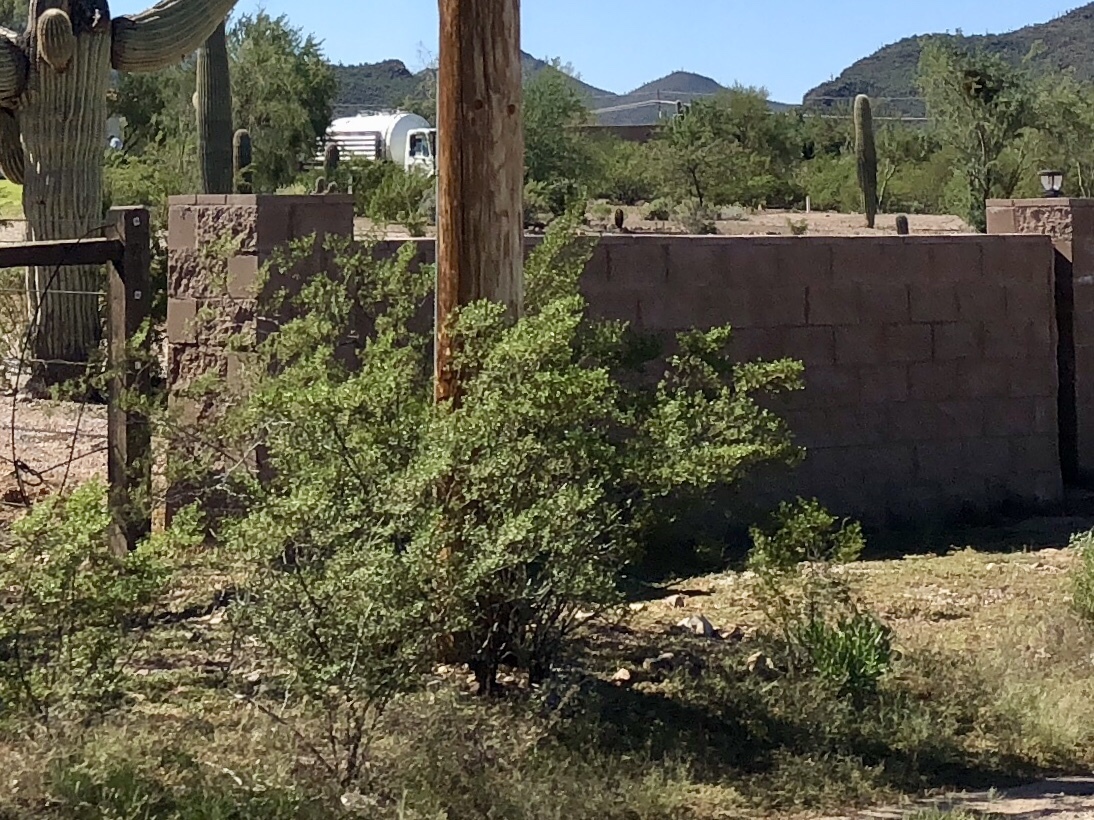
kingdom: Plantae
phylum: Tracheophyta
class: Magnoliopsida
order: Zygophyllales
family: Zygophyllaceae
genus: Larrea
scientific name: Larrea tridentata
